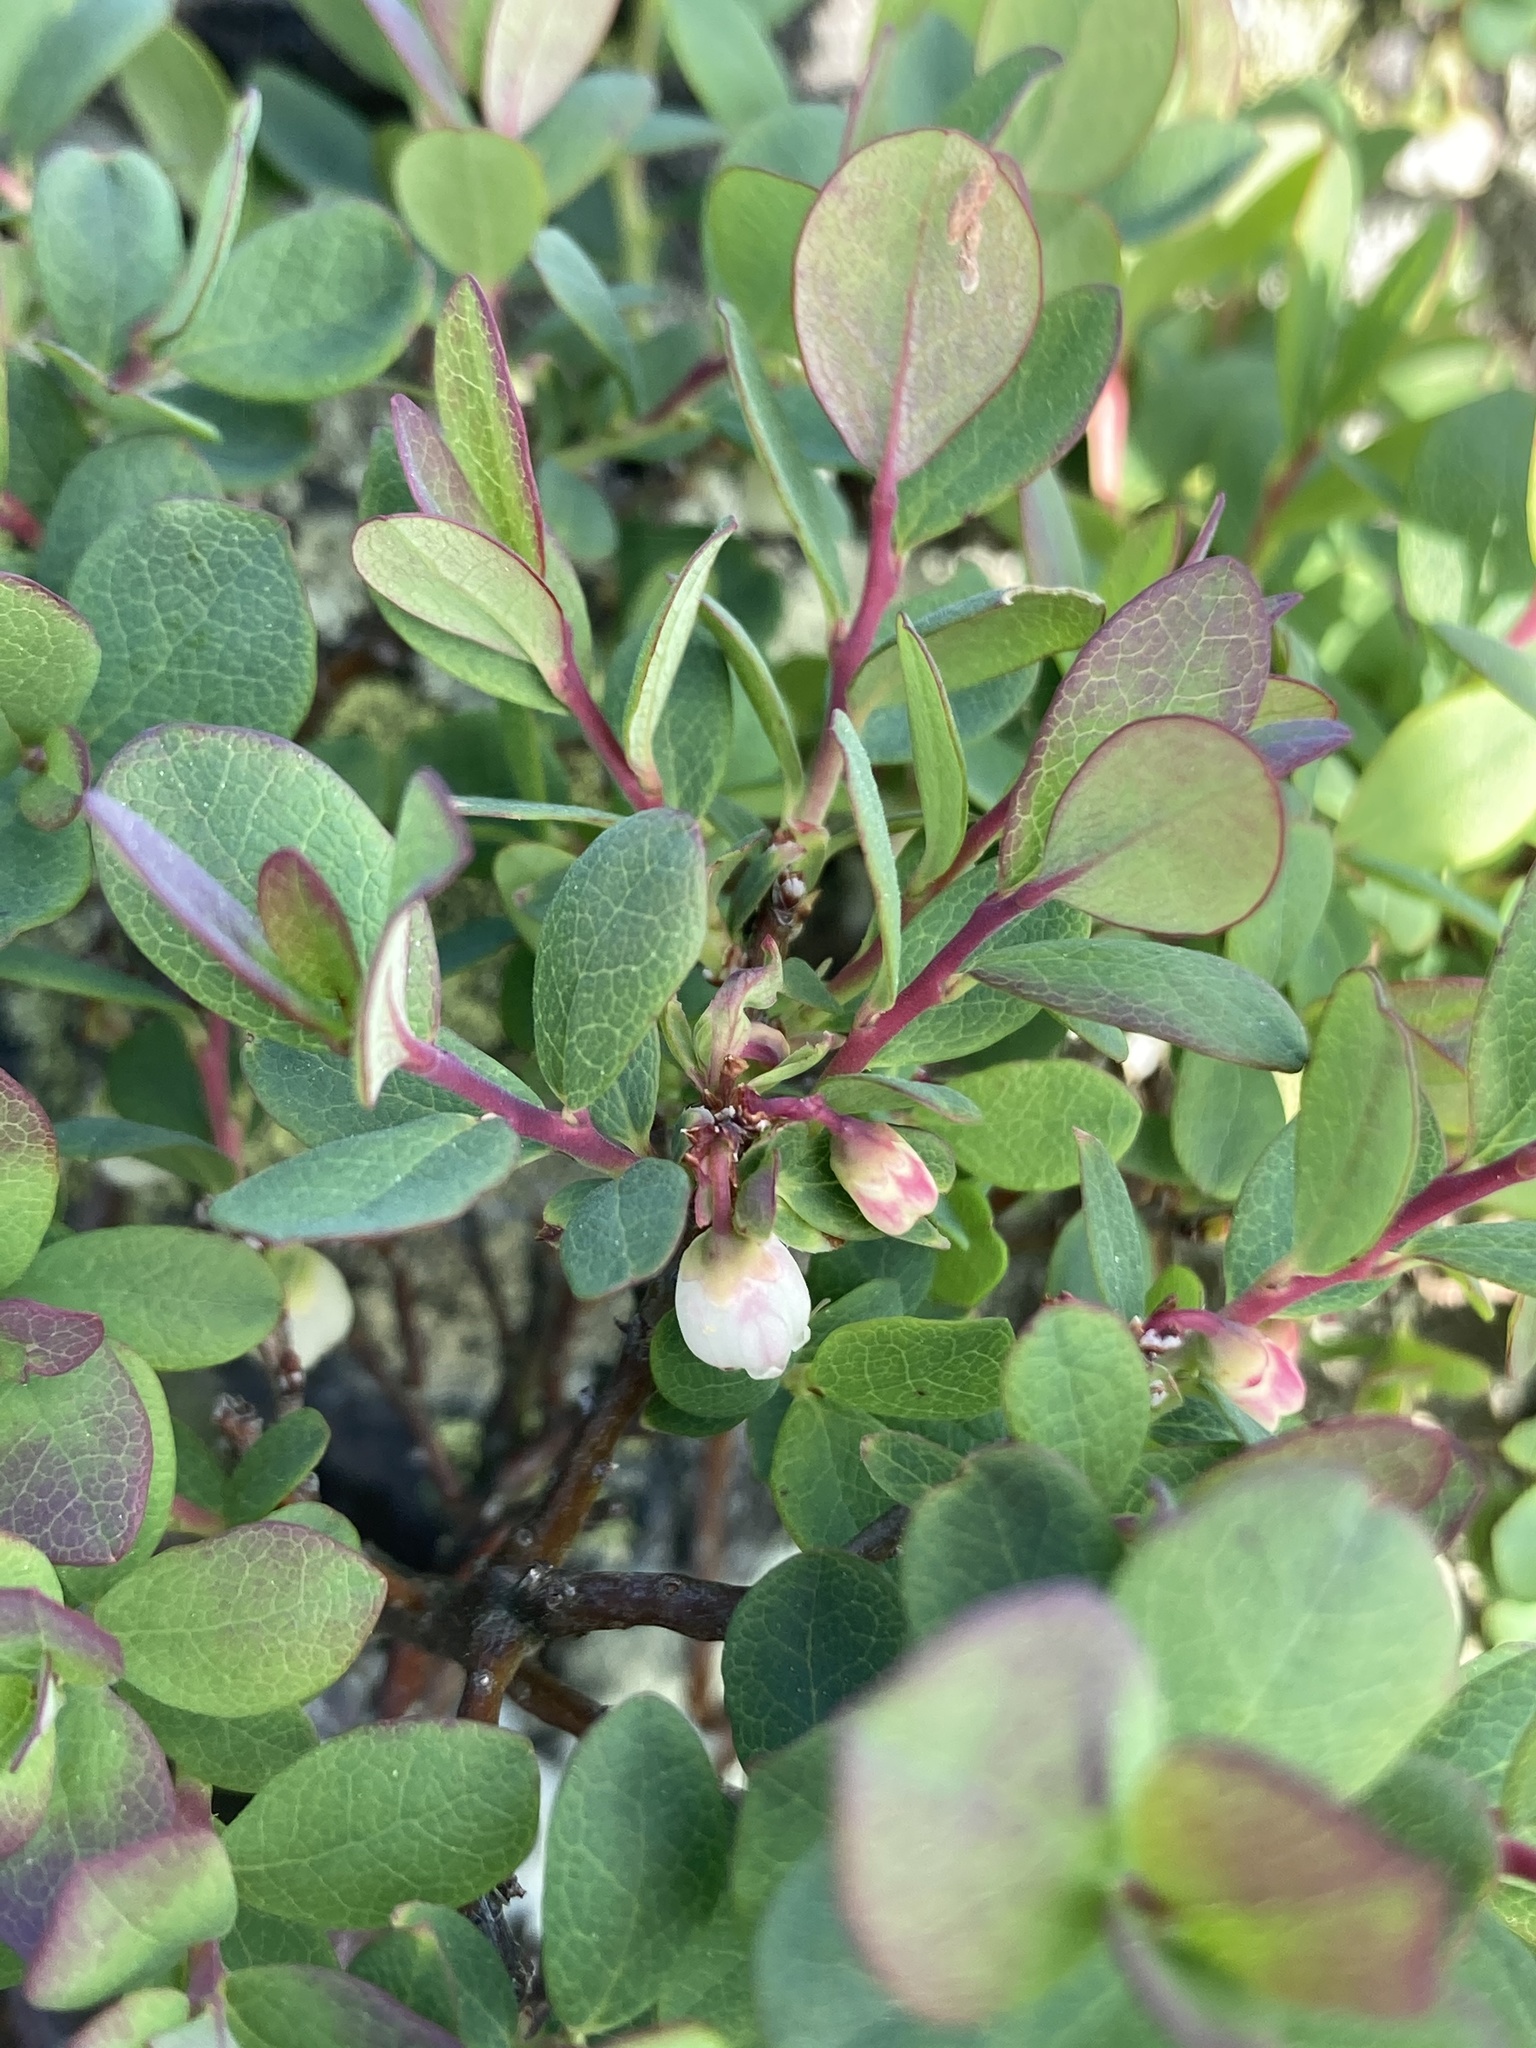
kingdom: Plantae
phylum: Tracheophyta
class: Magnoliopsida
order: Ericales
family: Ericaceae
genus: Vaccinium
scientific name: Vaccinium uliginosum
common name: Bog bilberry
